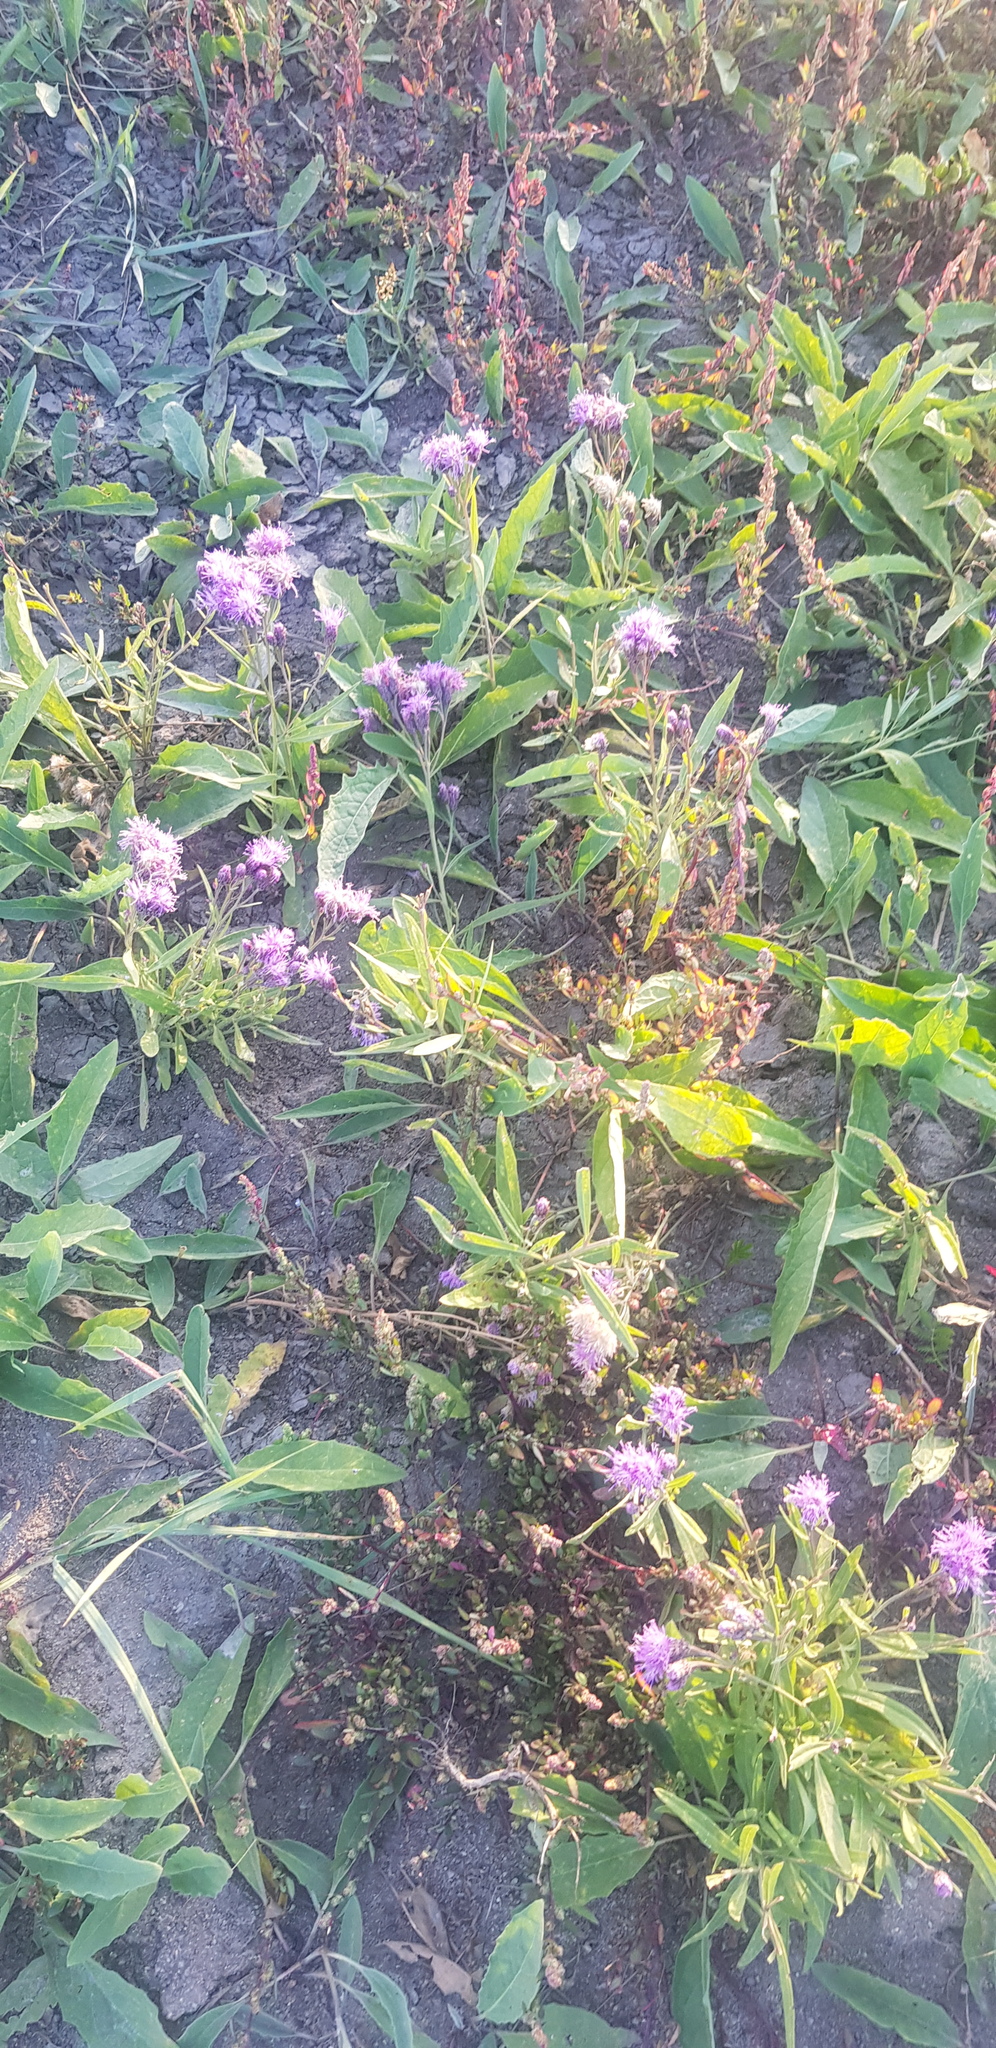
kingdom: Plantae
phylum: Tracheophyta
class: Magnoliopsida
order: Asterales
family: Asteraceae
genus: Saussurea
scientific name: Saussurea amara
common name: Alberta sawwort
